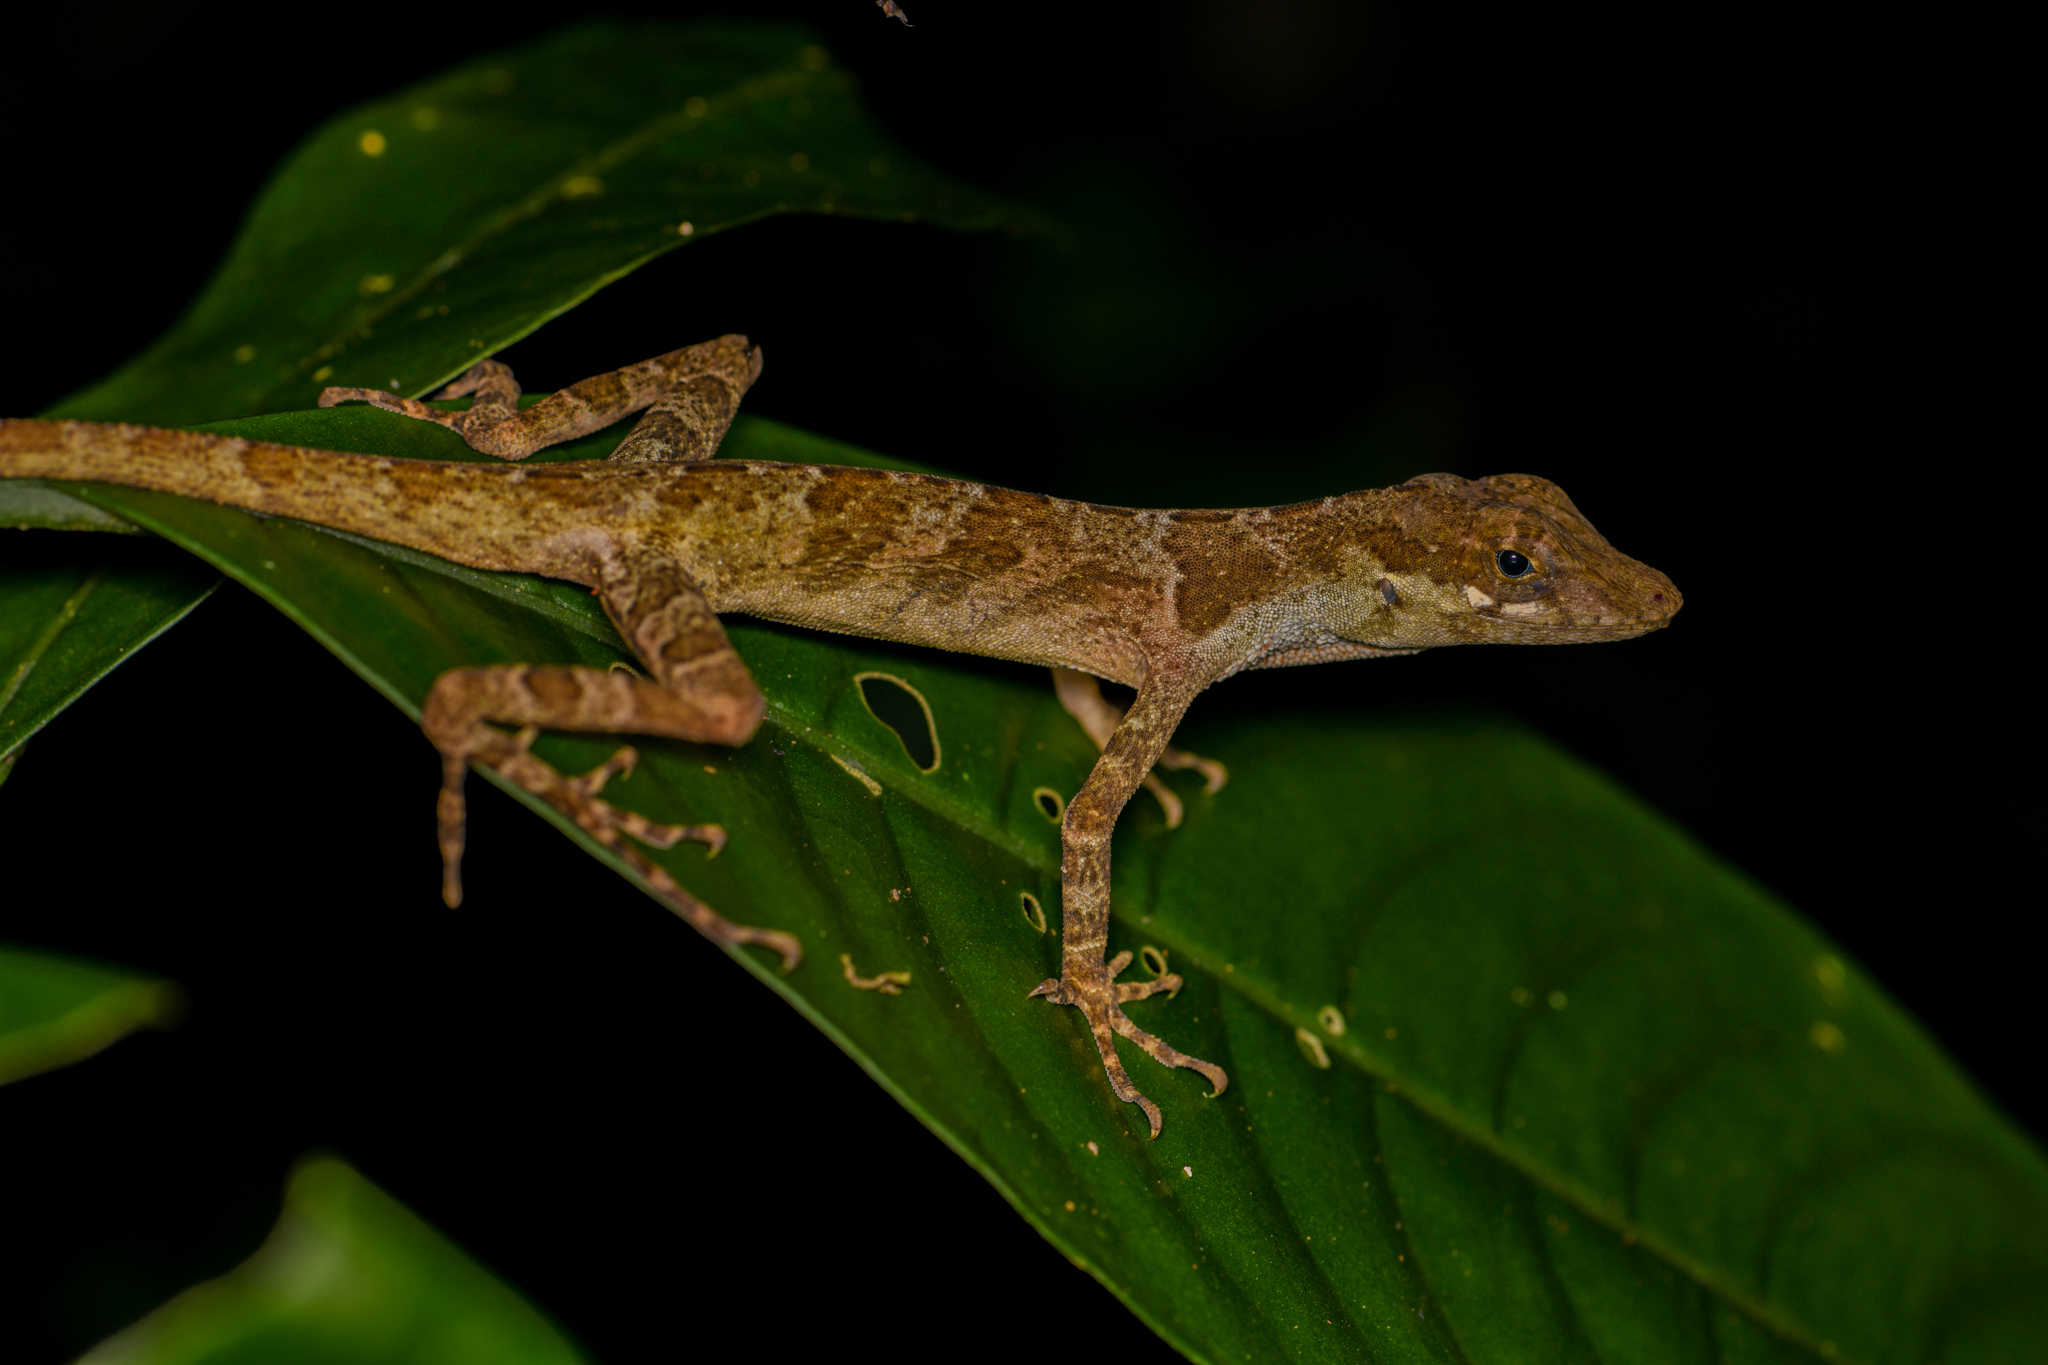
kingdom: Animalia
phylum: Chordata
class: Squamata
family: Dactyloidae
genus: Anolis
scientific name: Anolis lemurinus
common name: Ghost anole
